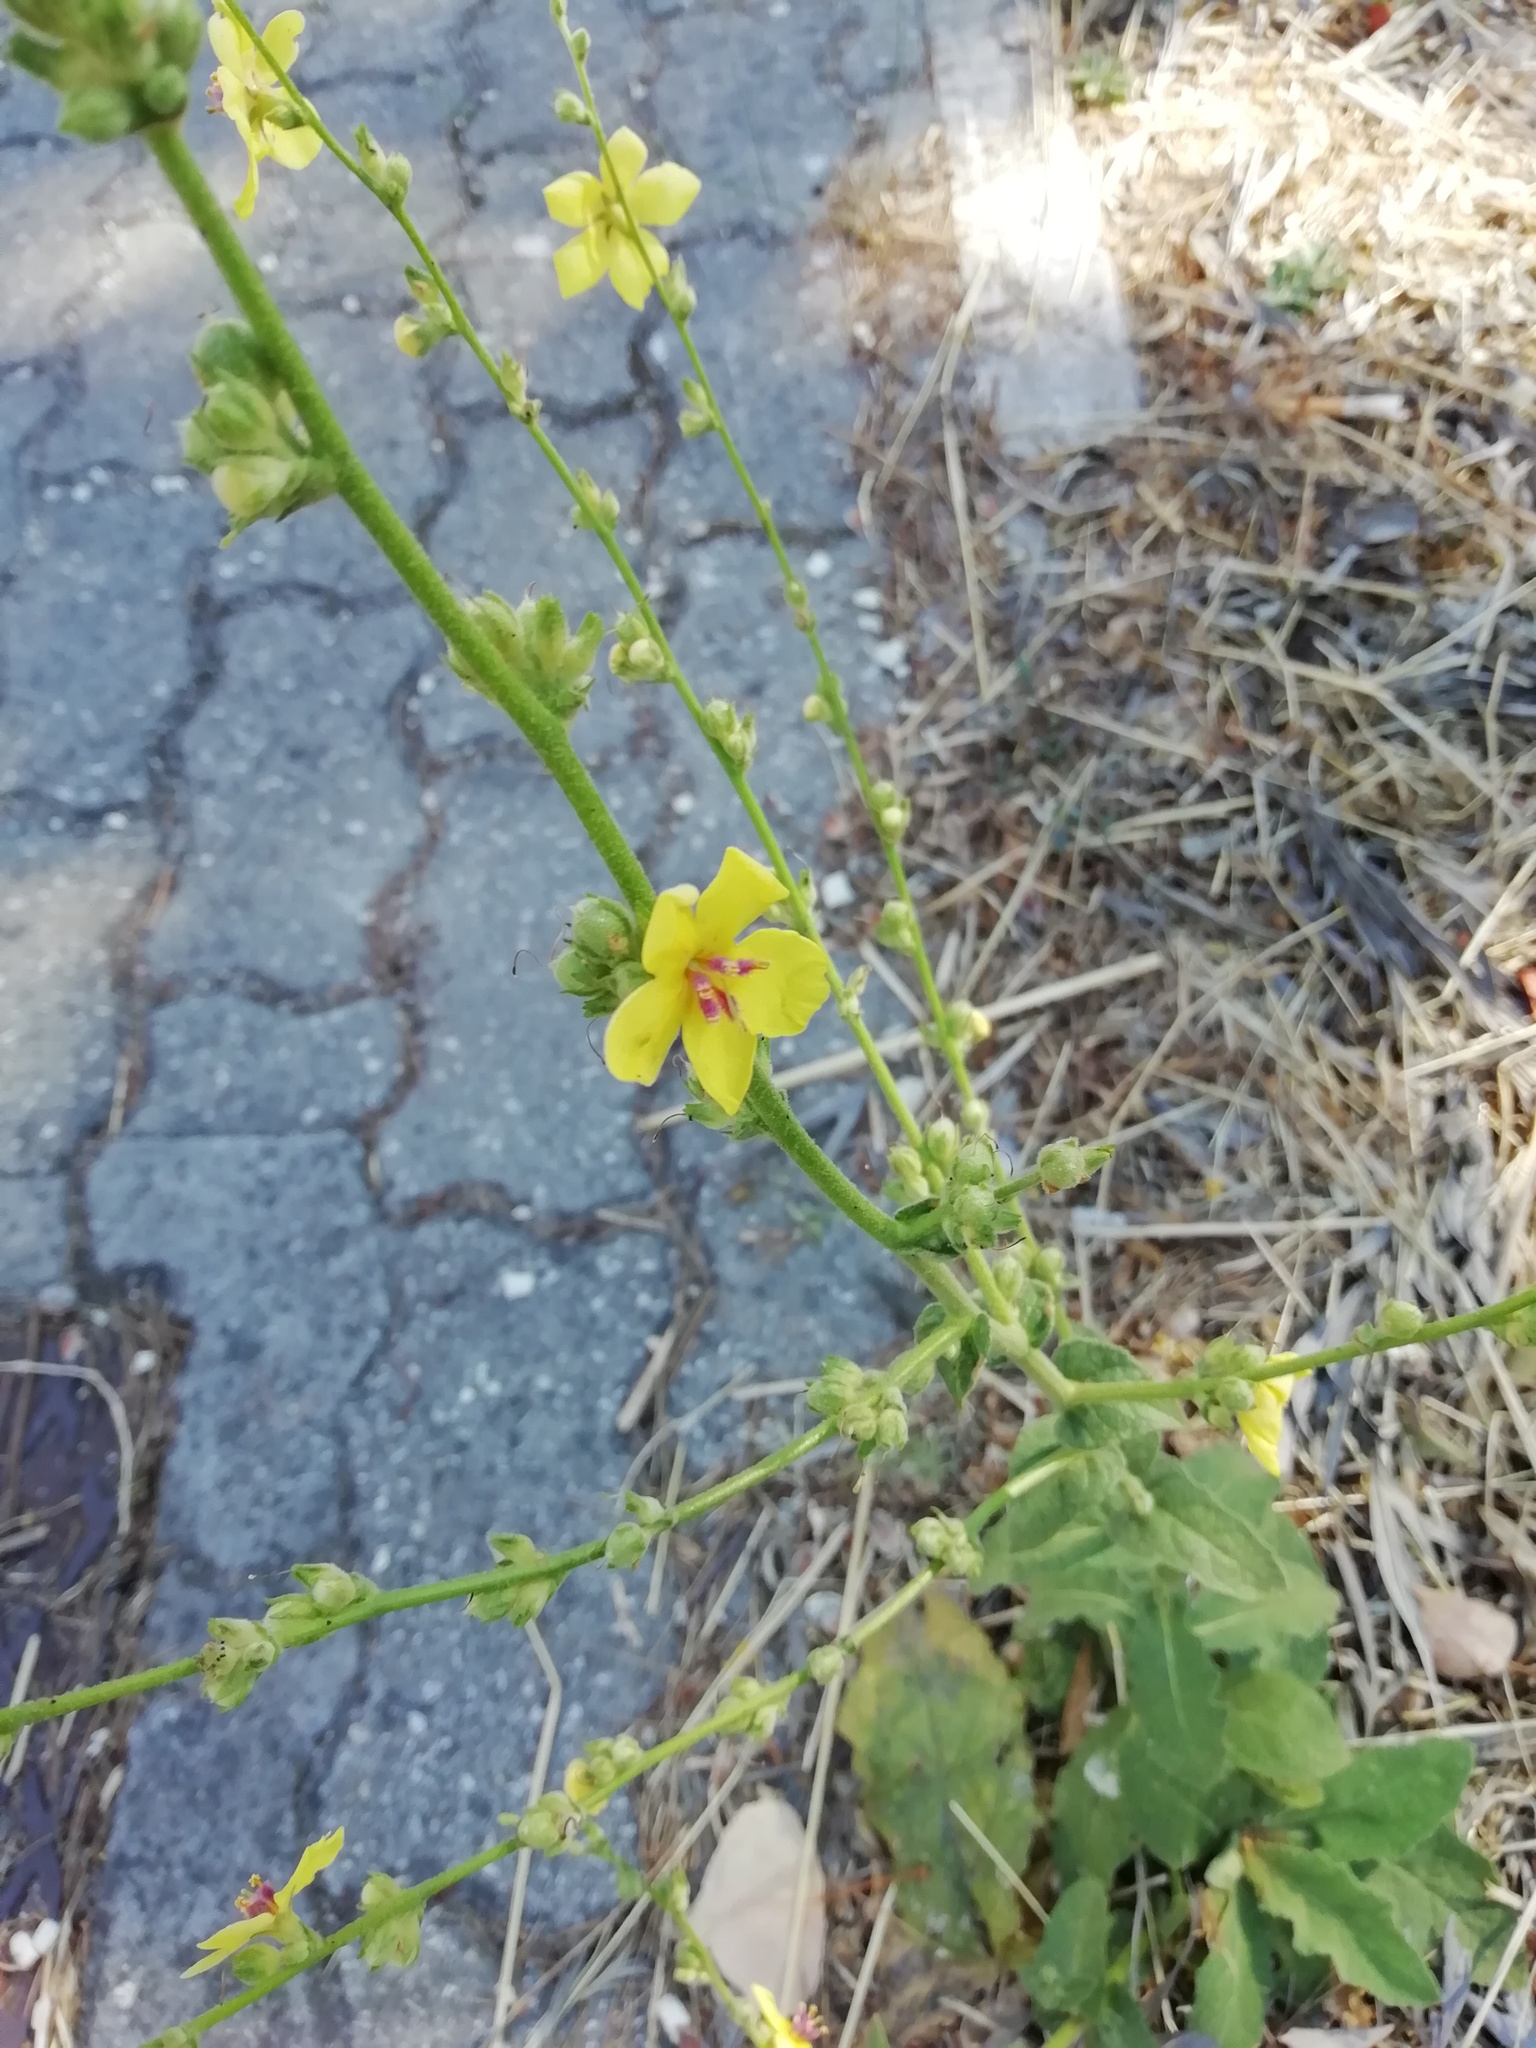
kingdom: Plantae
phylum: Tracheophyta
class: Magnoliopsida
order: Lamiales
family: Scrophulariaceae
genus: Verbascum
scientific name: Verbascum sinuatum
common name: Wavyleaf mullein
